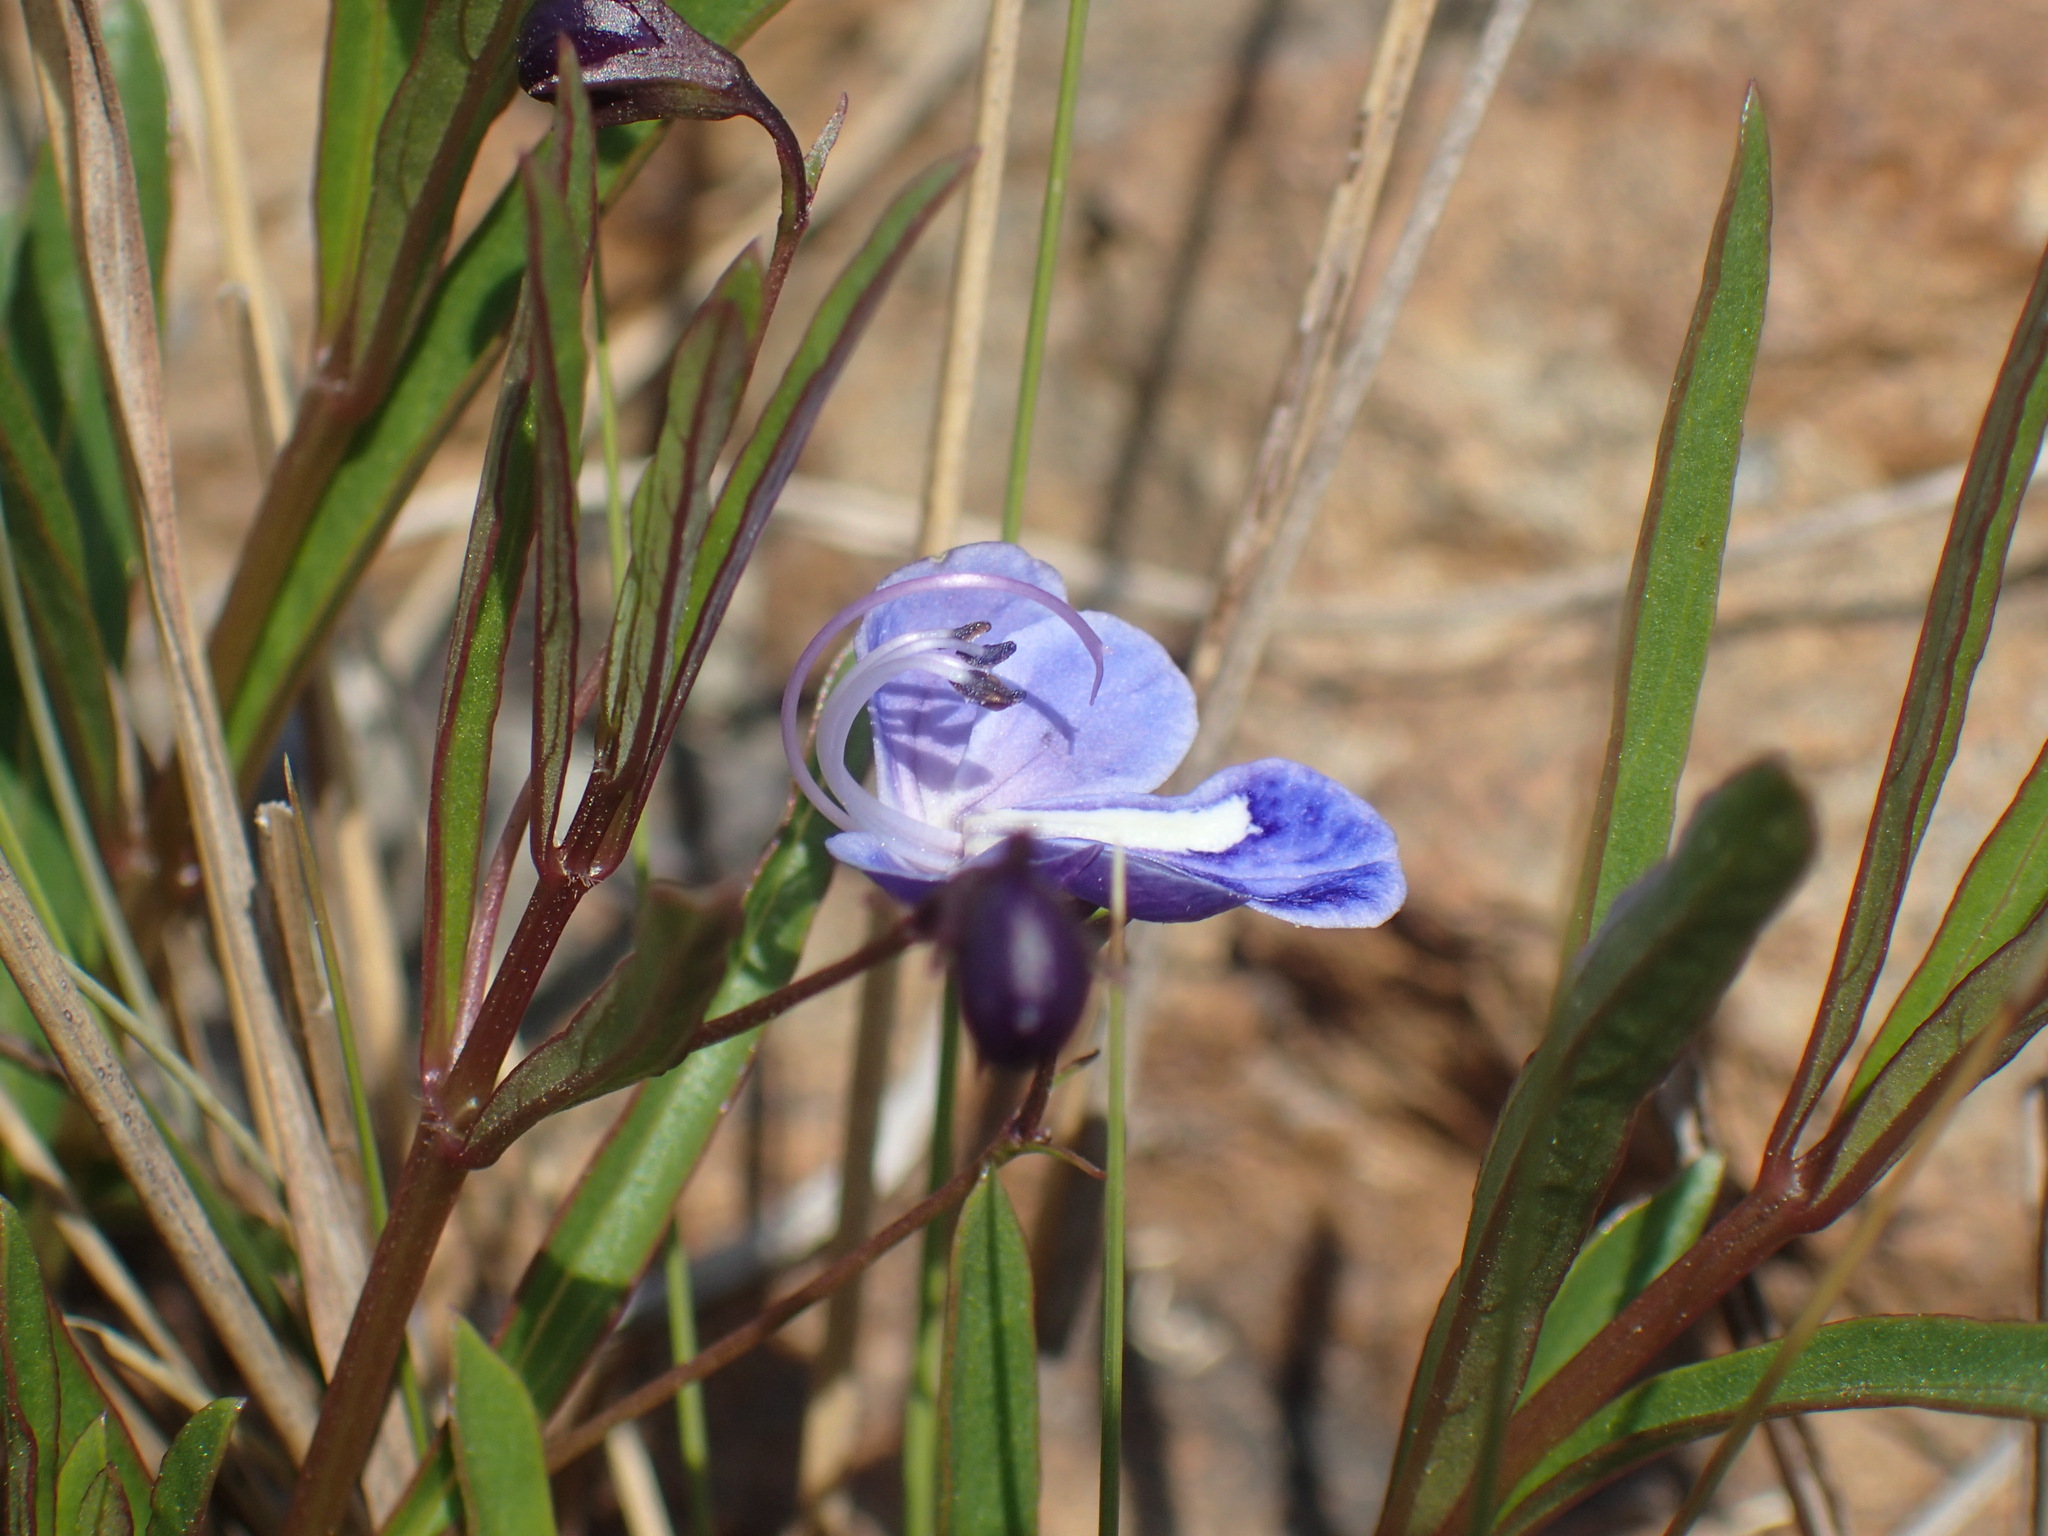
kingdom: Plantae
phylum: Tracheophyta
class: Magnoliopsida
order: Lamiales
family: Lamiaceae
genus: Rotheca
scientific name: Rotheca hirsuta
